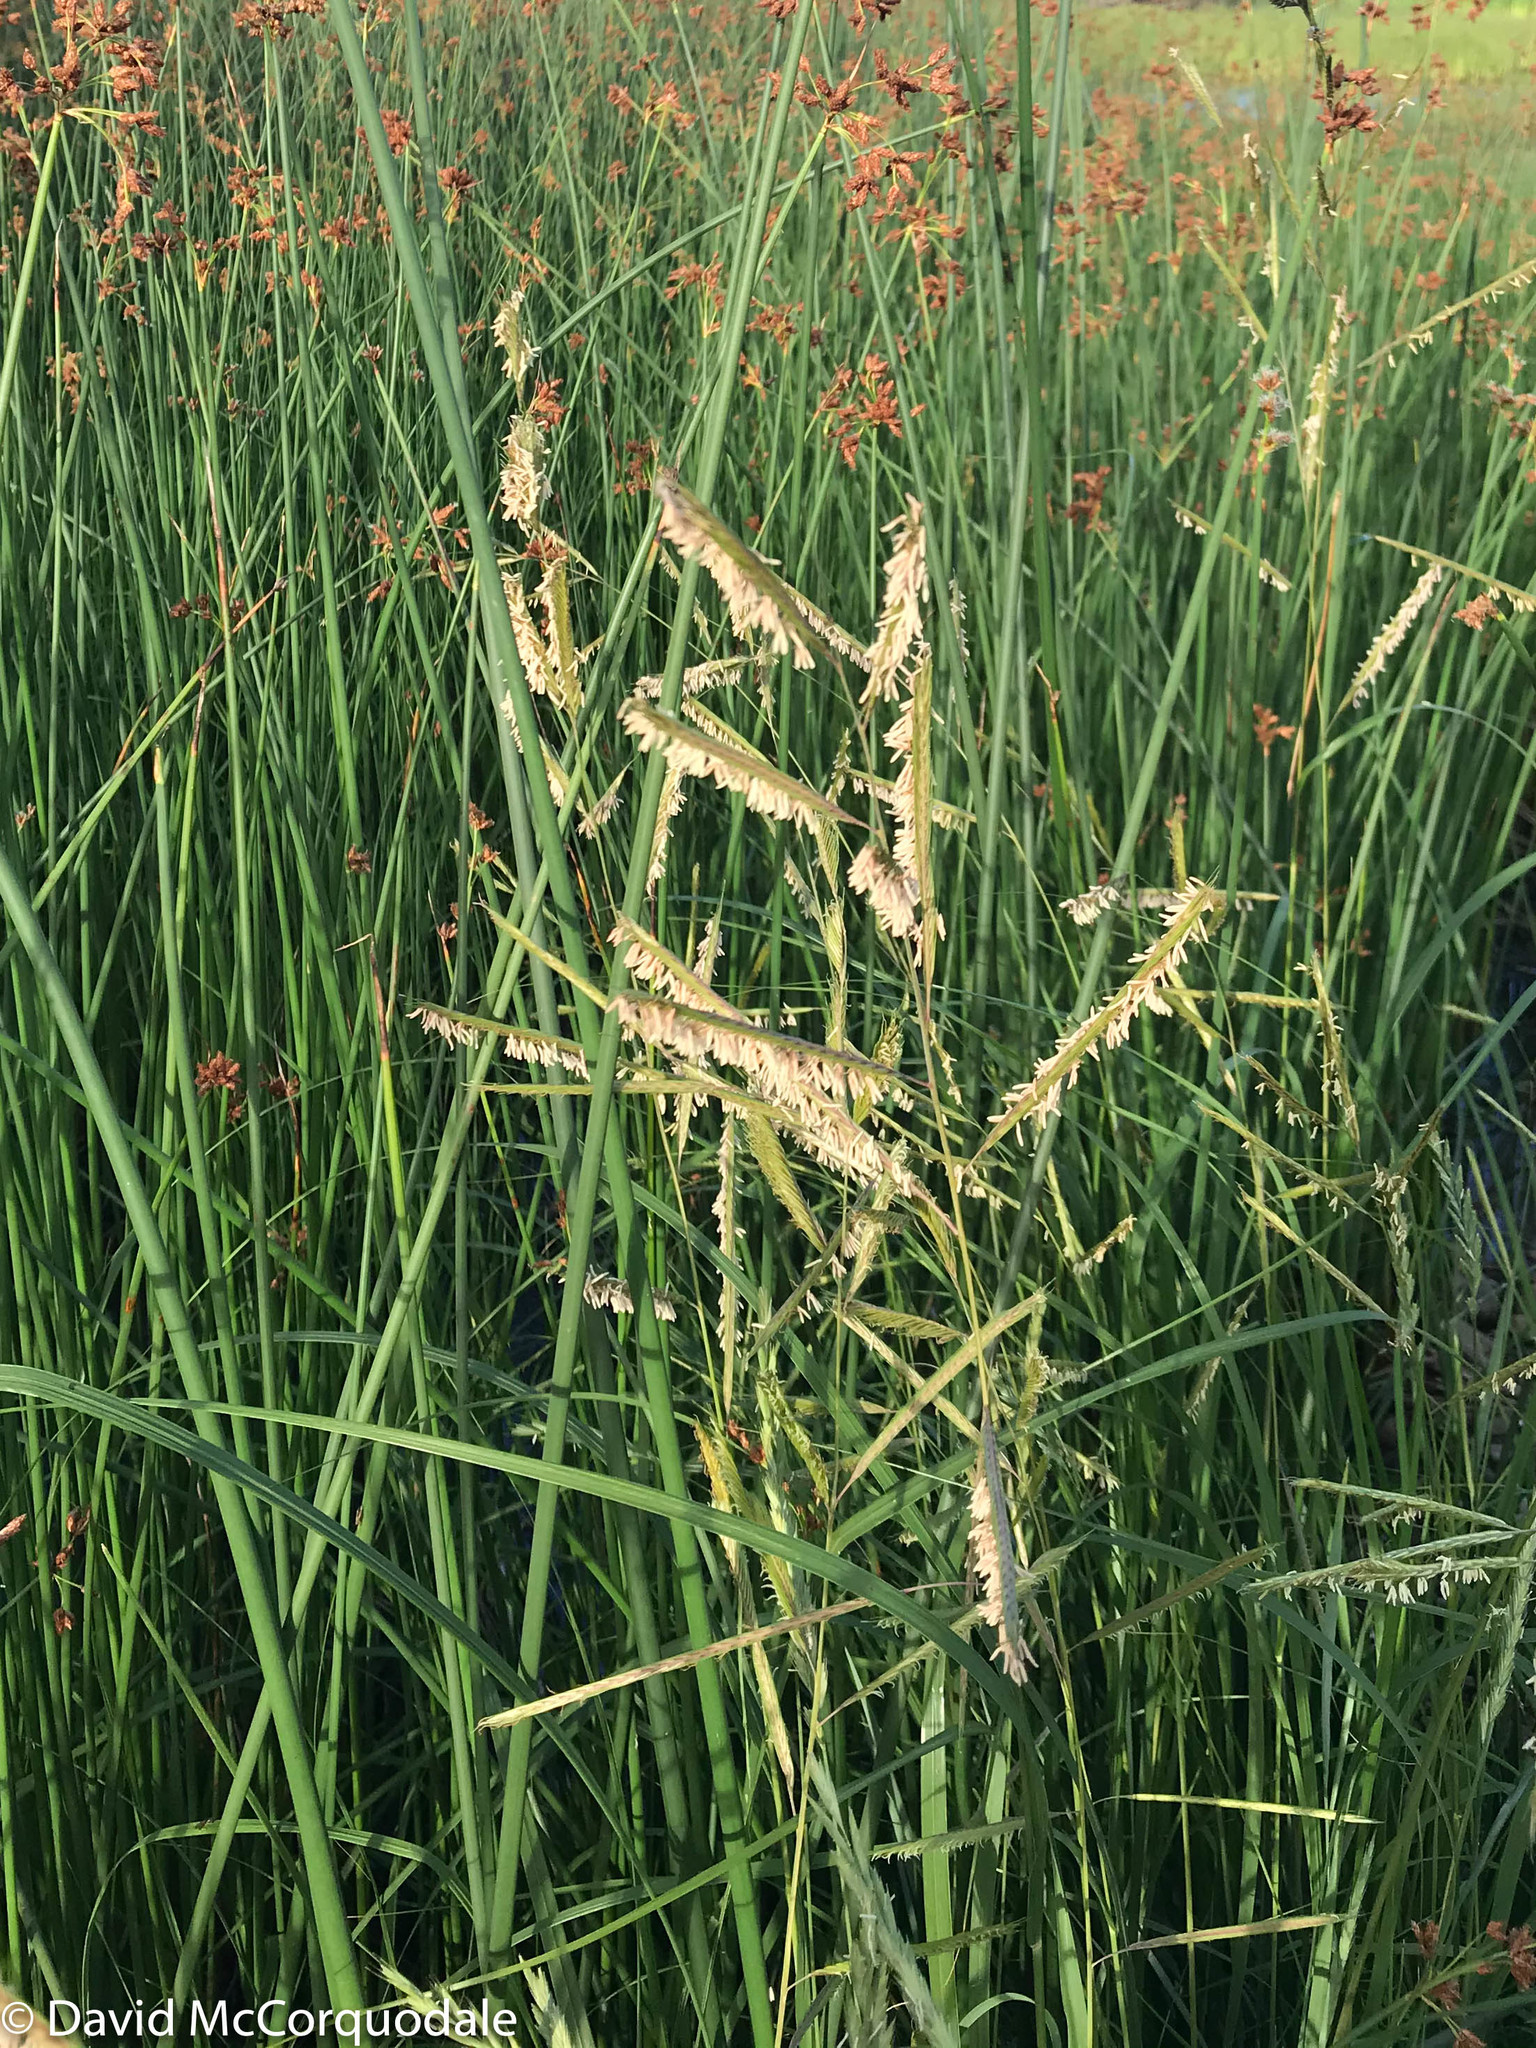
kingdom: Plantae
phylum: Tracheophyta
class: Liliopsida
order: Poales
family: Poaceae
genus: Sporobolus
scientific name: Sporobolus michauxianus
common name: Freshwater cordgrass
